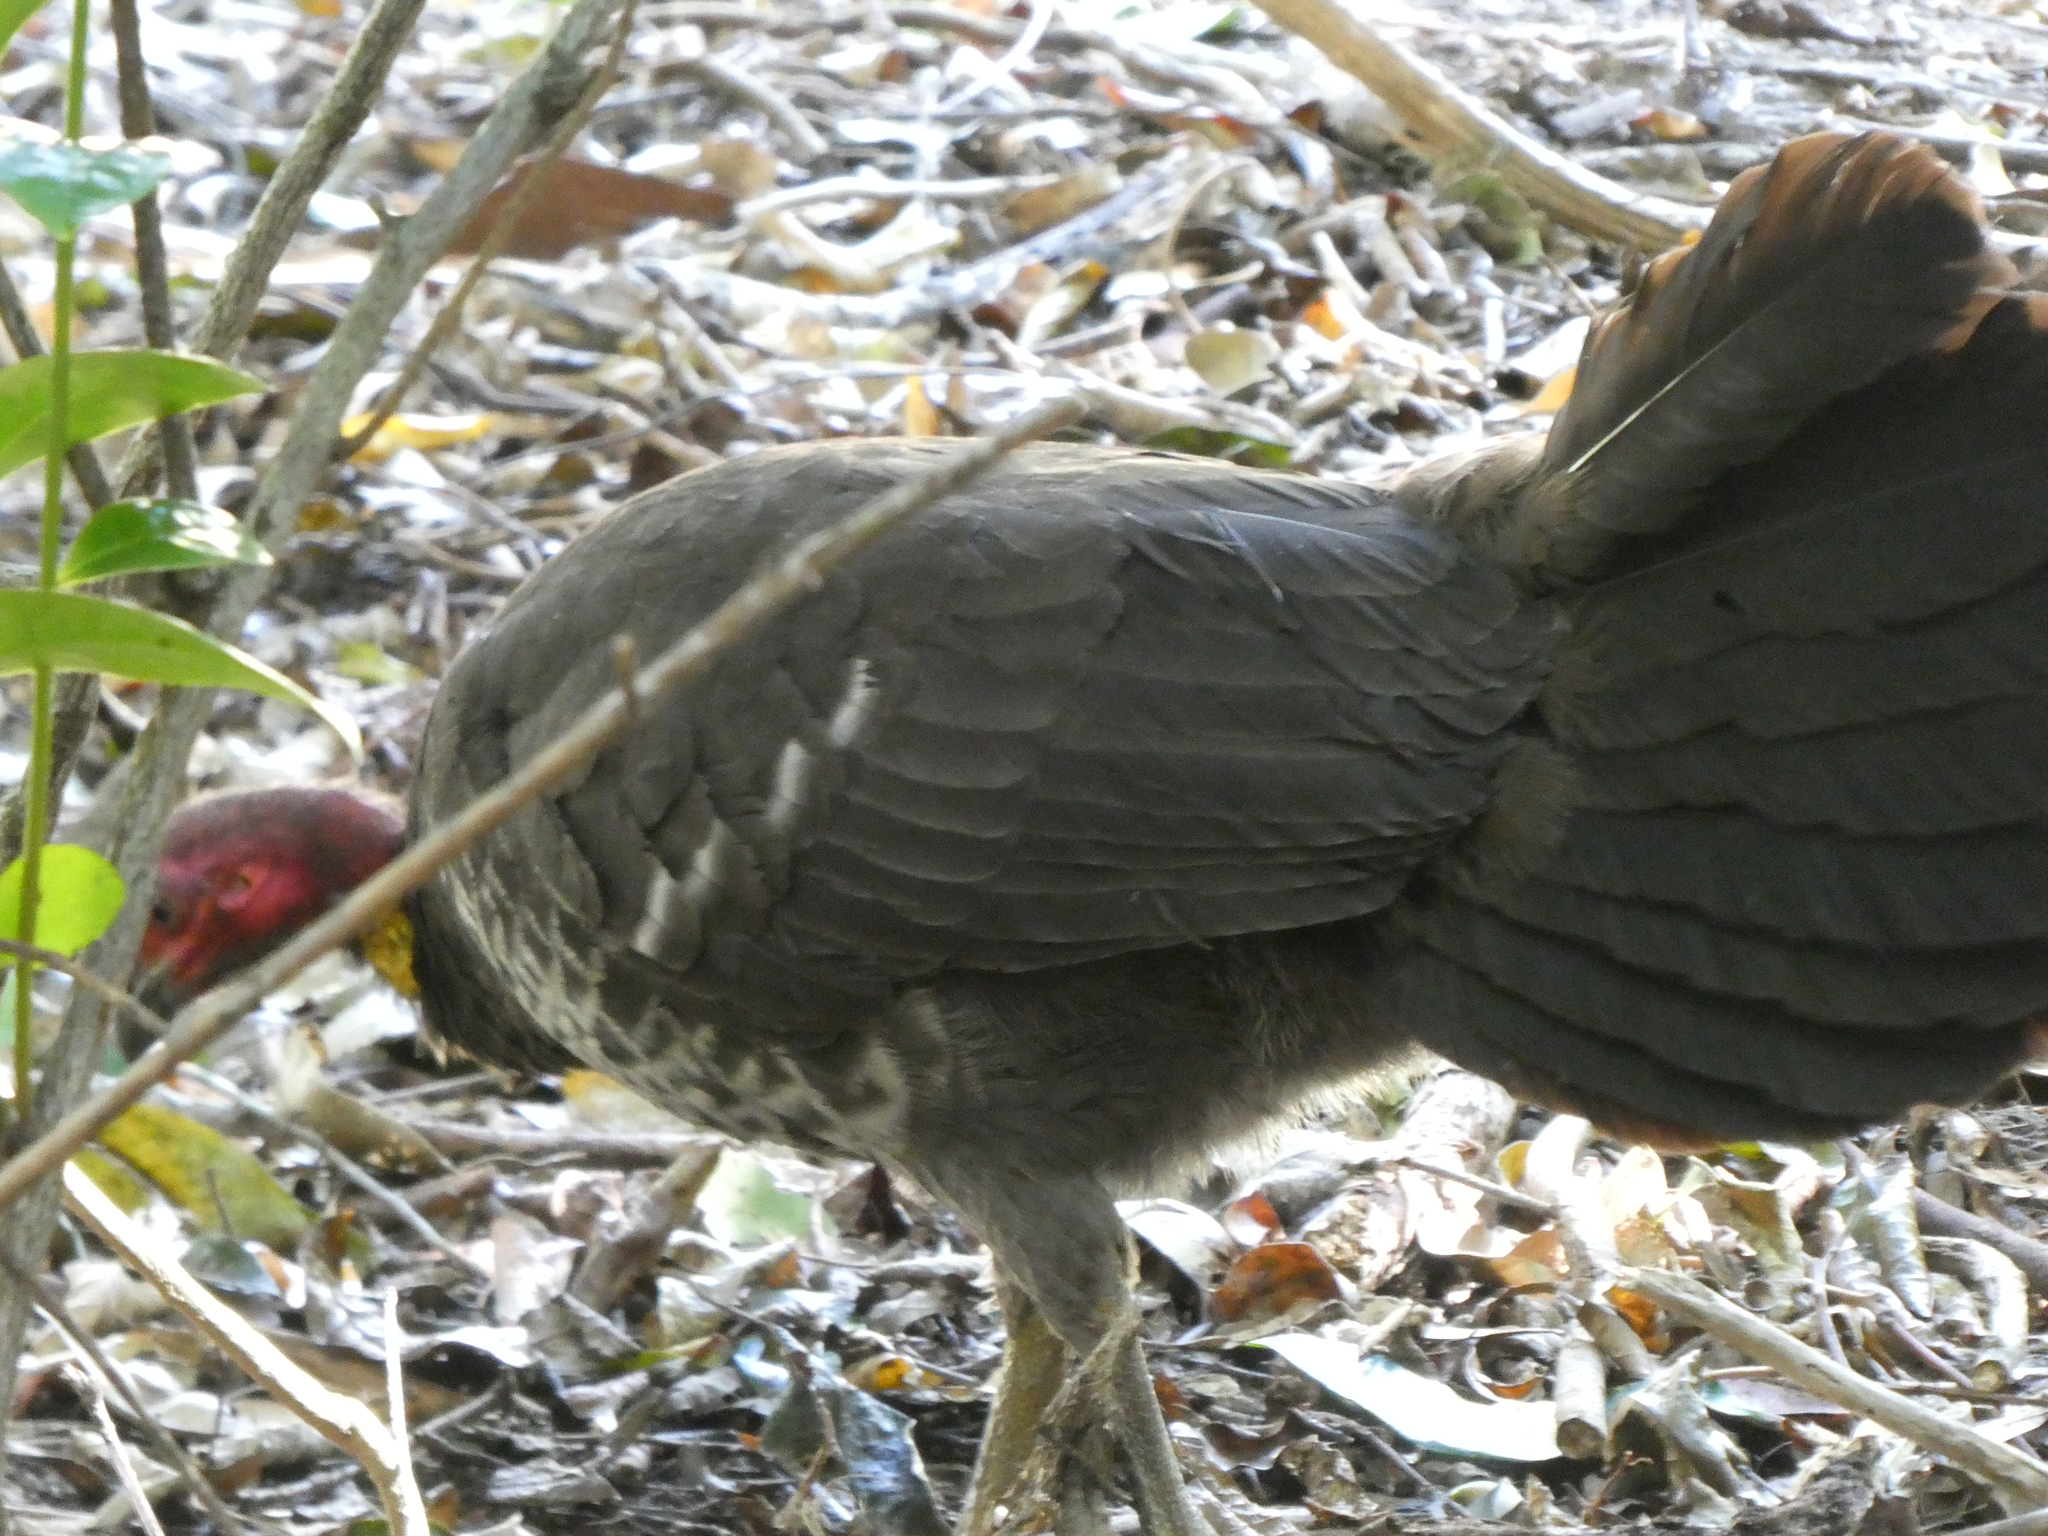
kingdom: Animalia
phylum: Chordata
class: Aves
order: Galliformes
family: Megapodiidae
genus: Alectura
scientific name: Alectura lathami
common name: Australian brushturkey
